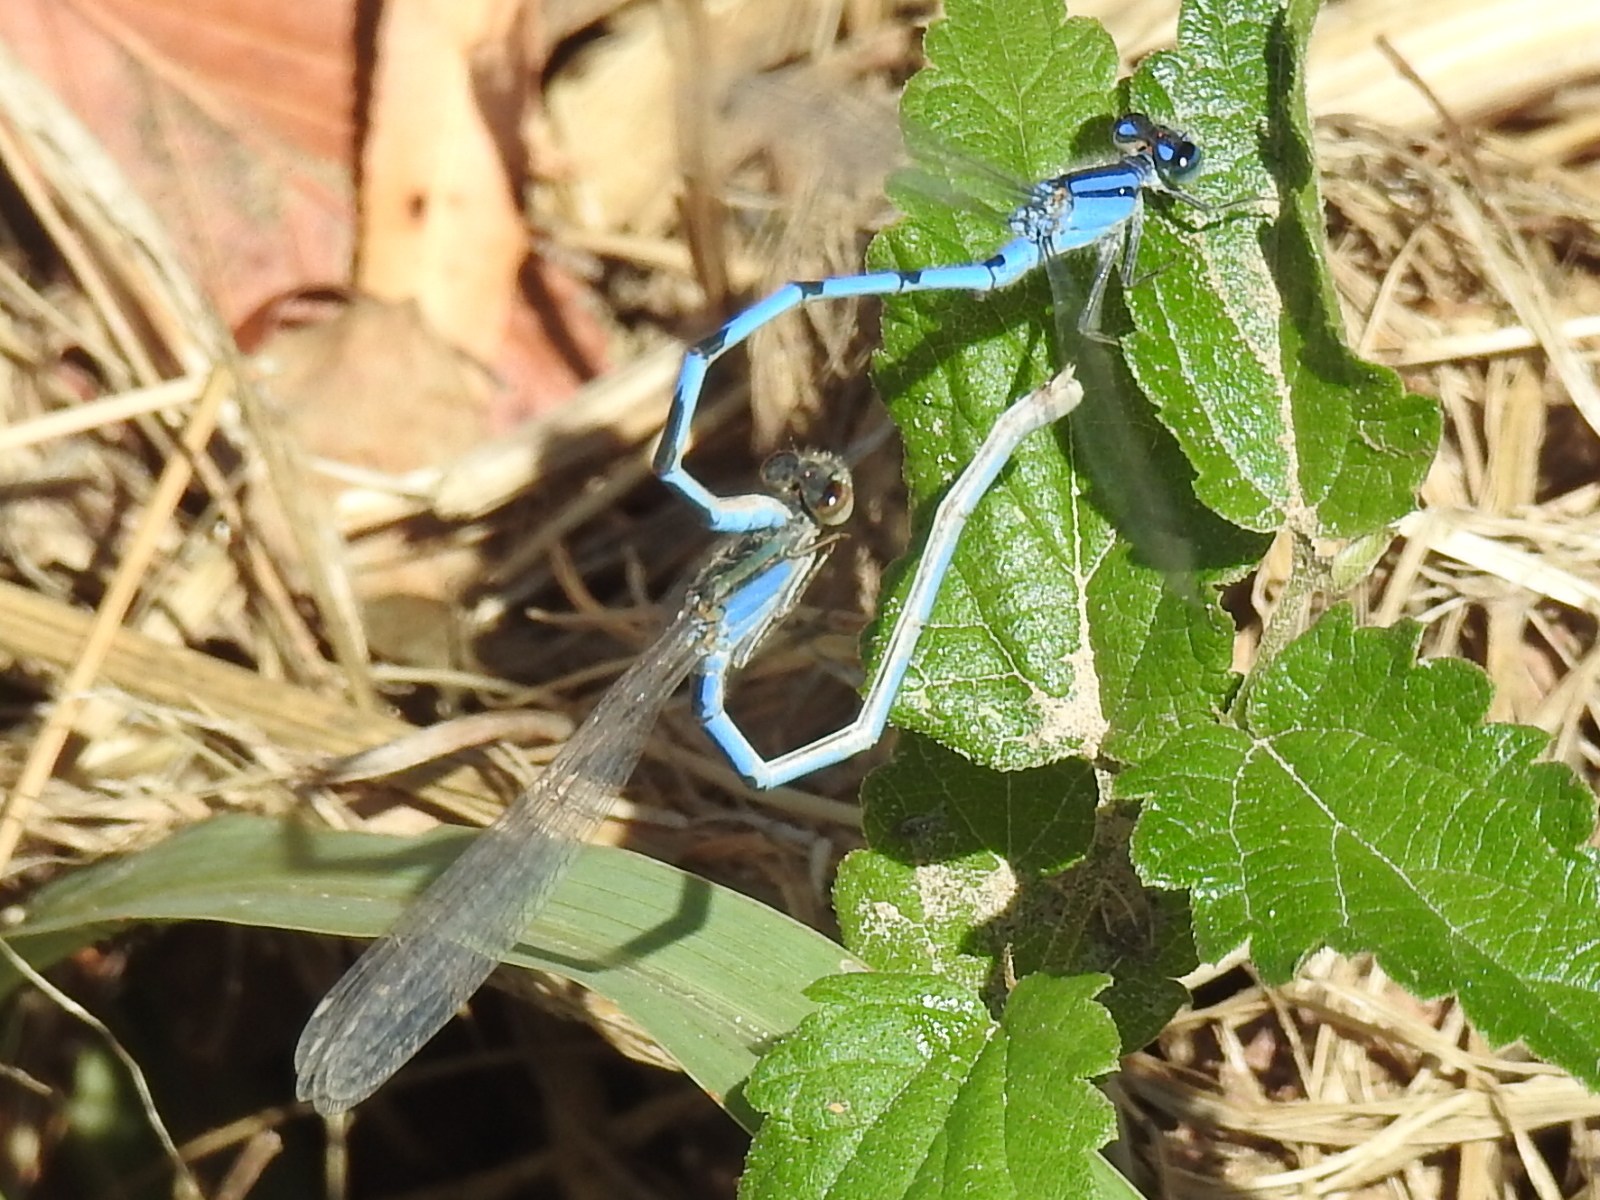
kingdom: Animalia
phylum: Arthropoda
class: Insecta
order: Odonata
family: Coenagrionidae
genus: Enallagma
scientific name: Enallagma civile
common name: Damselfly
